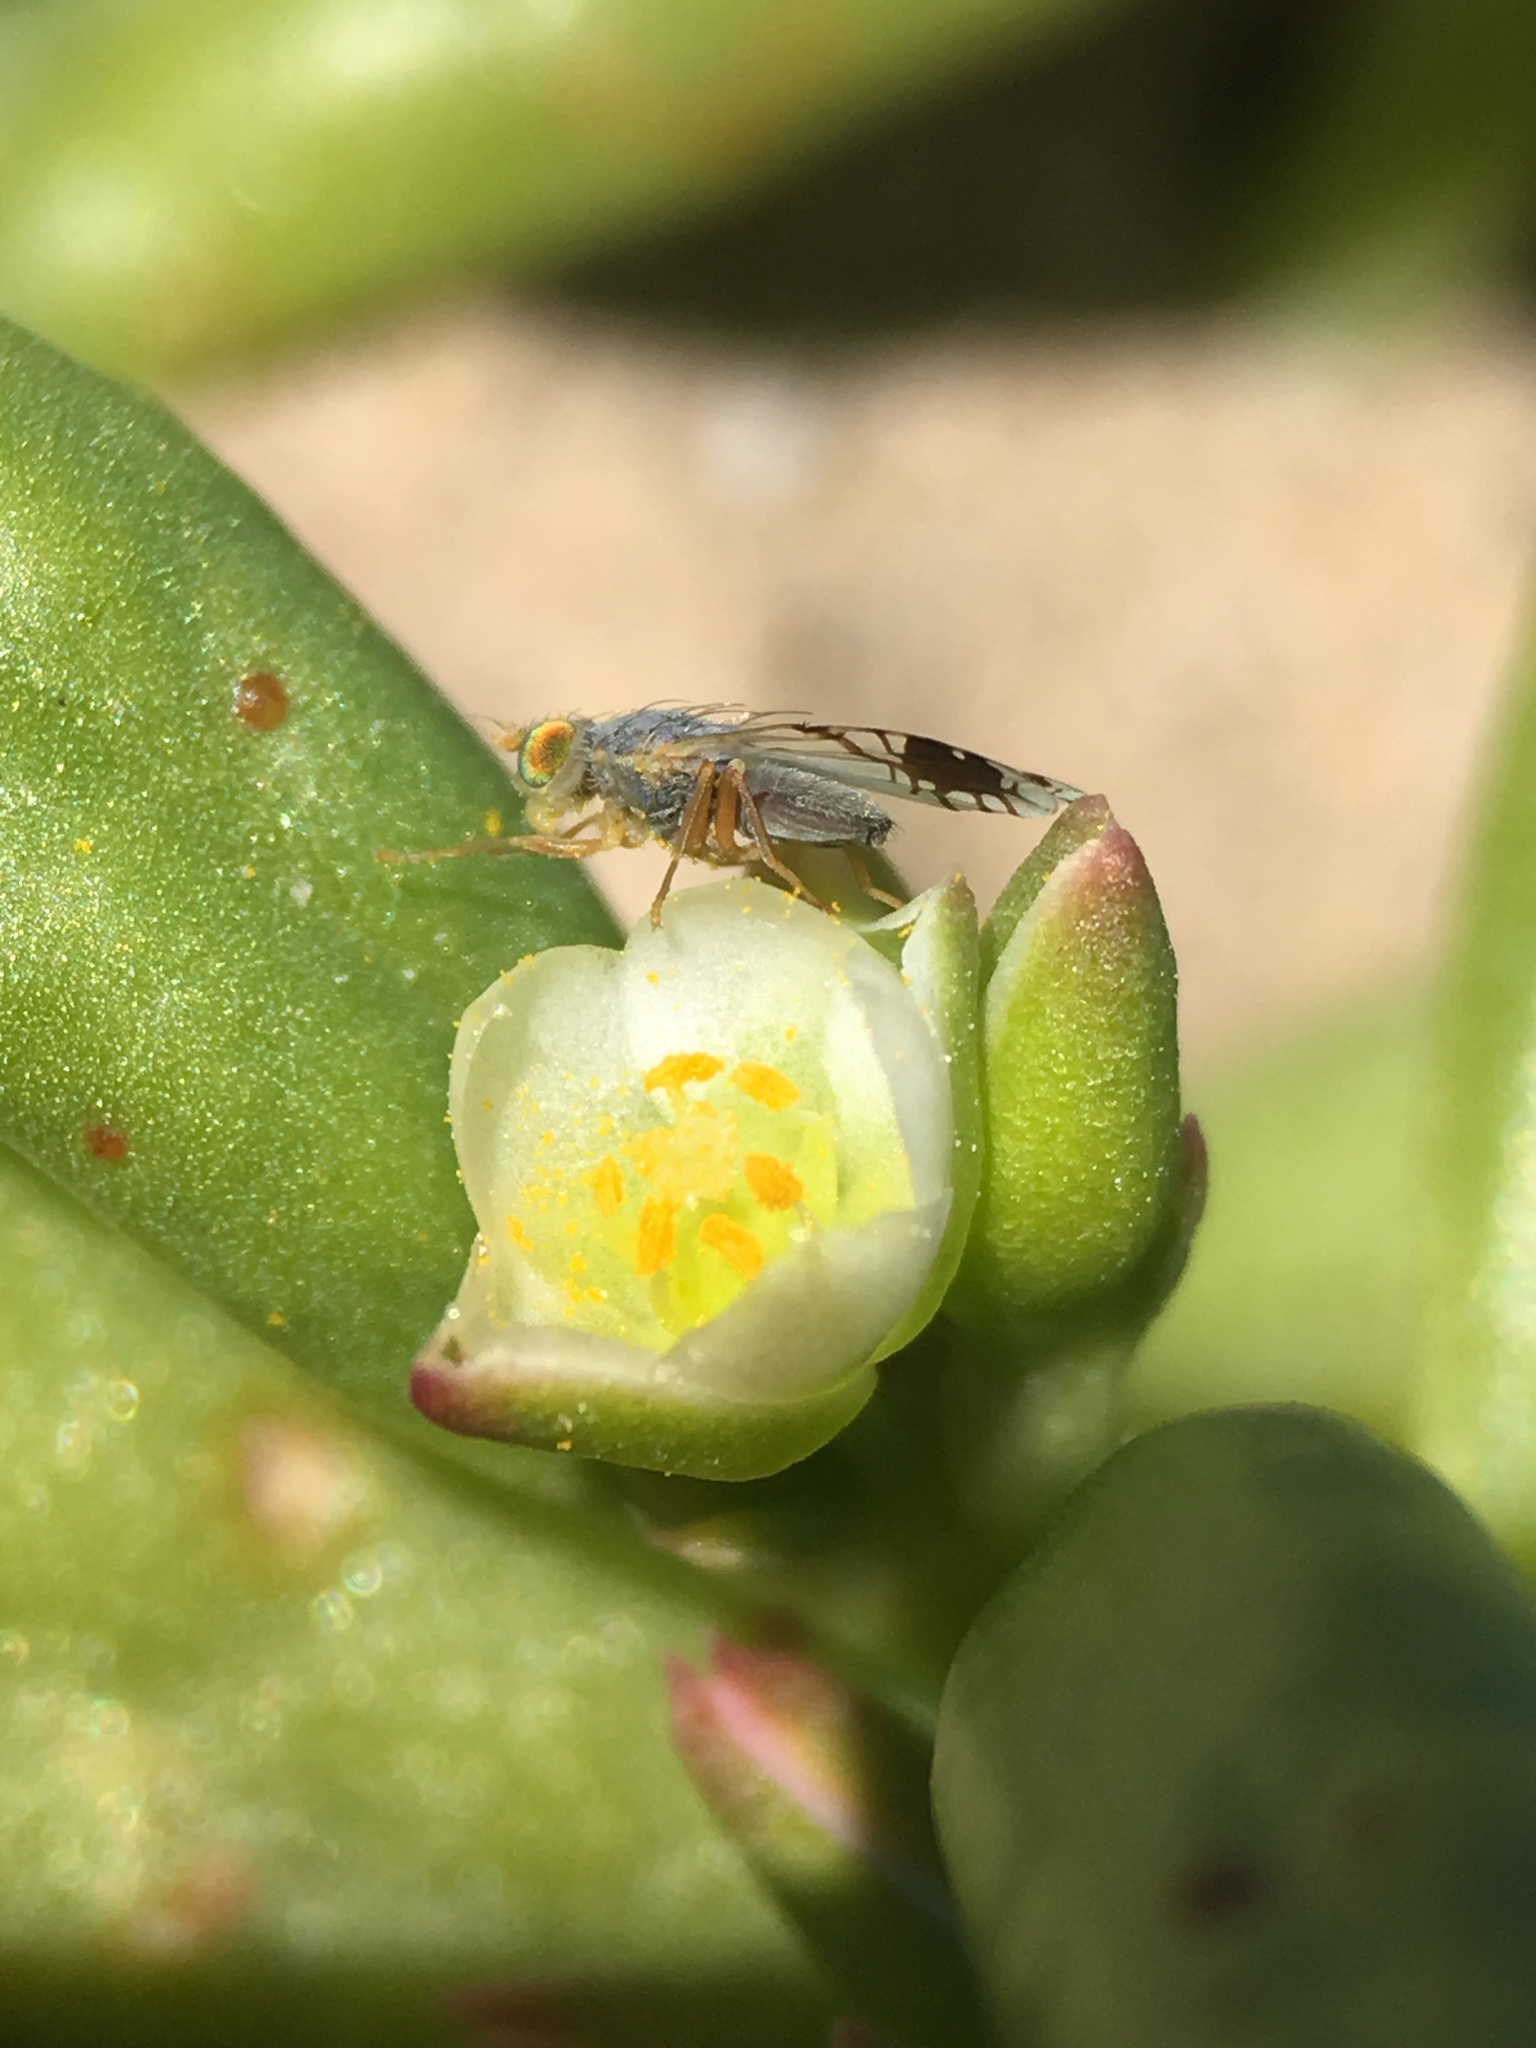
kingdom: Plantae
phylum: Tracheophyta
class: Magnoliopsida
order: Caryophyllales
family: Montiaceae
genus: Thingia
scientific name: Thingia ambigua
